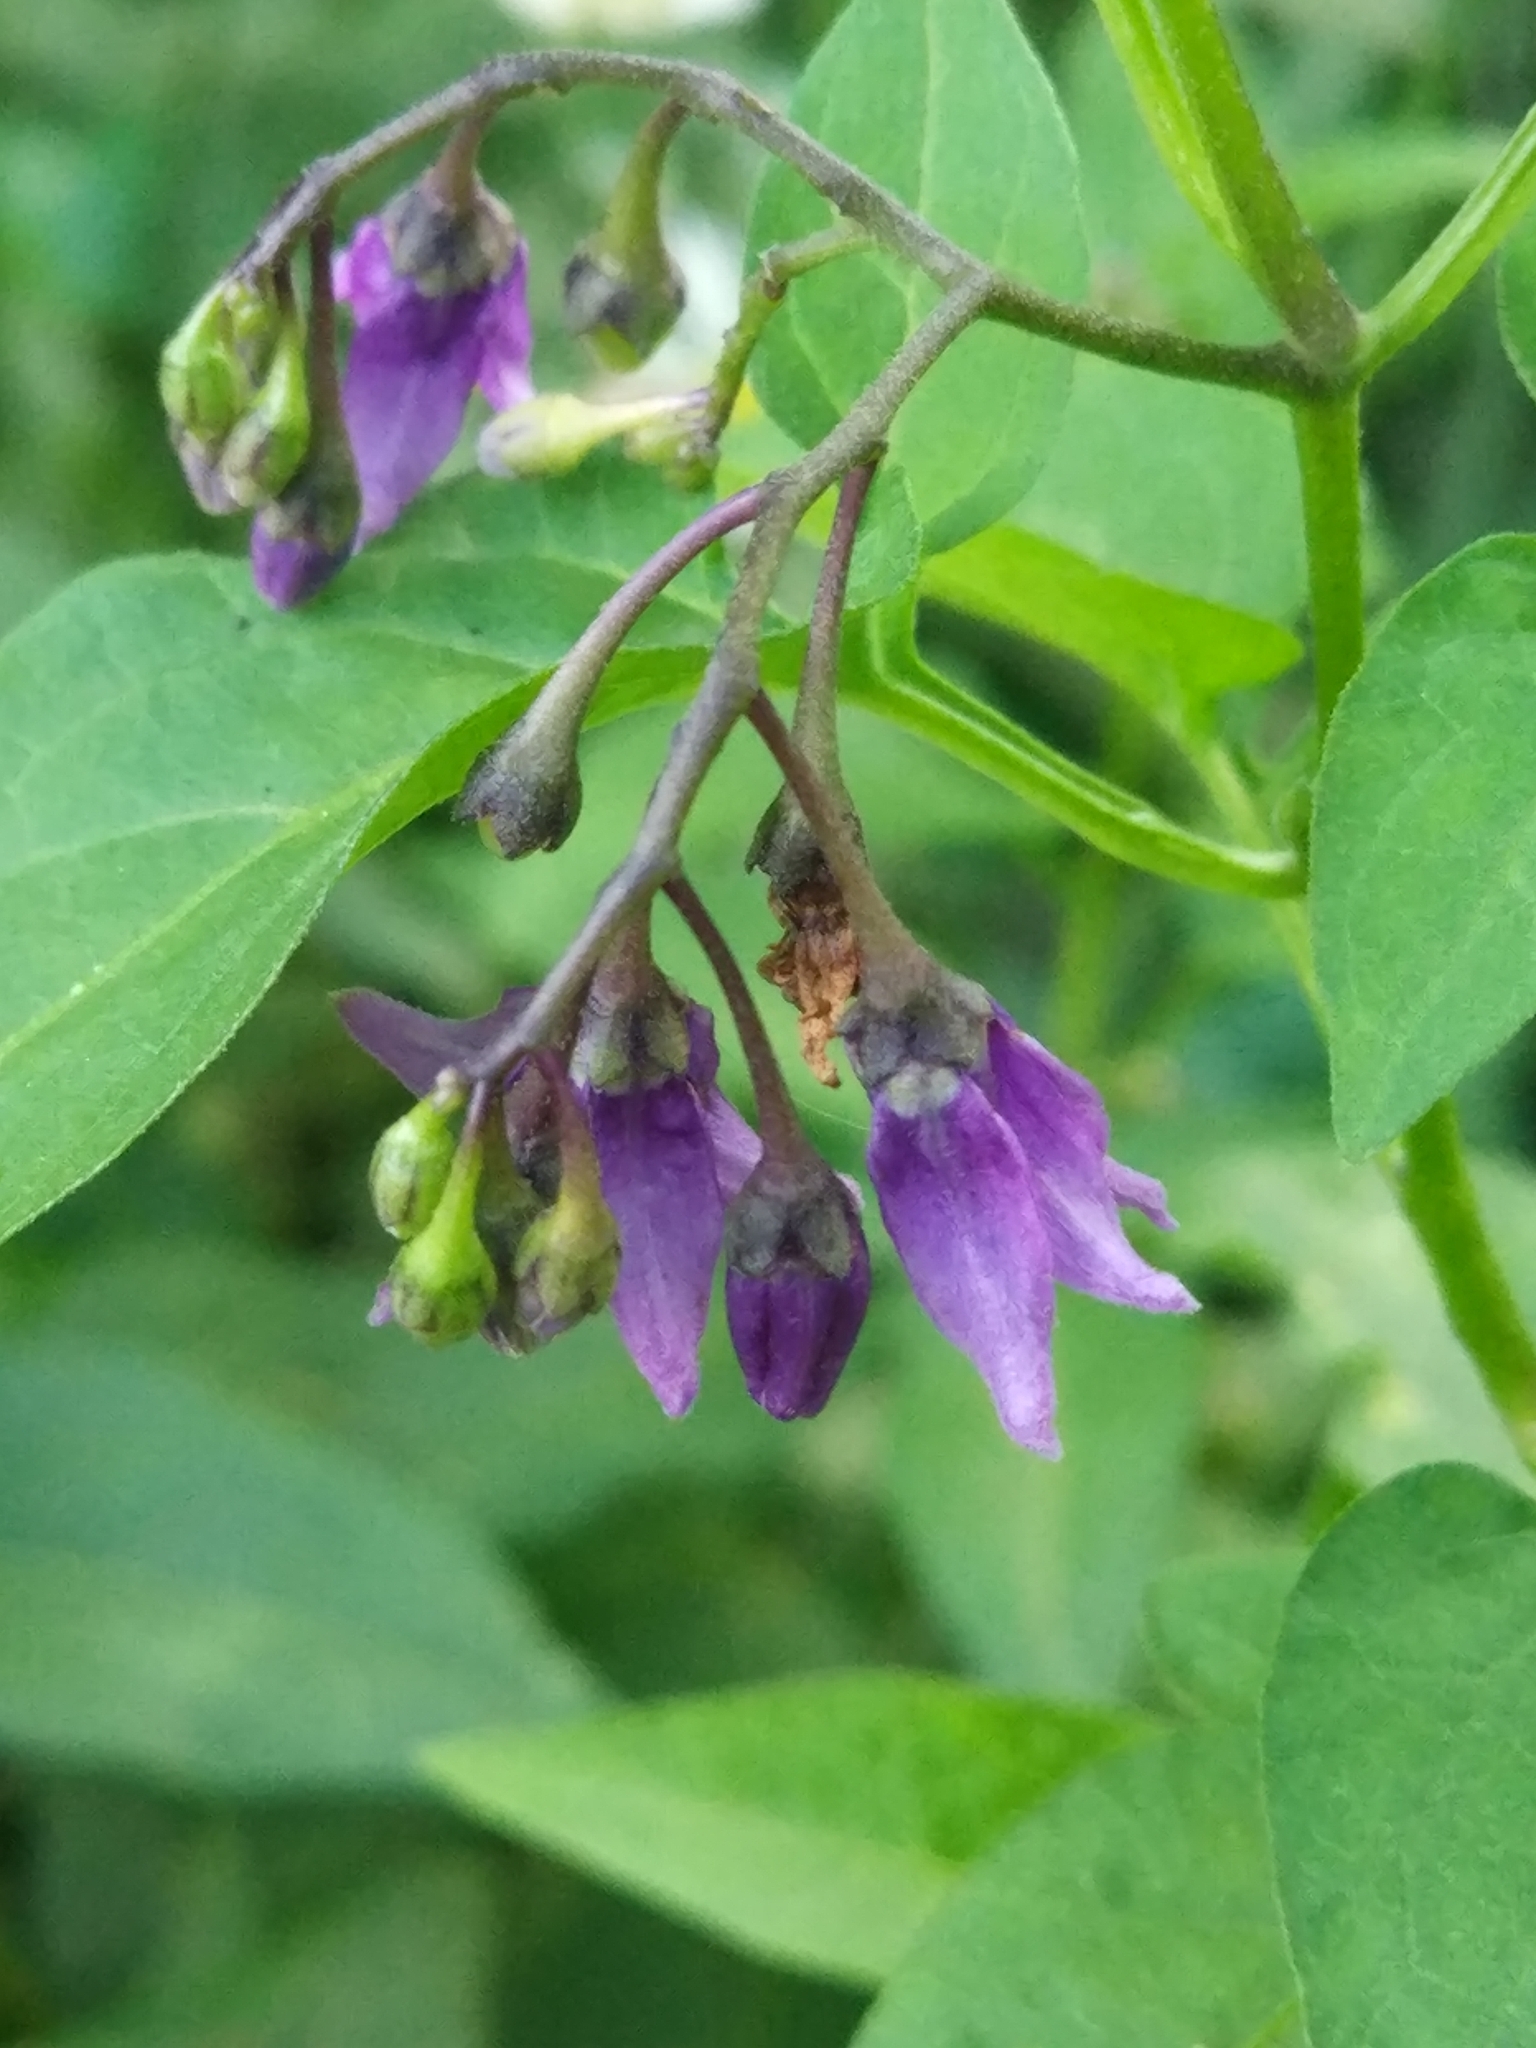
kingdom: Plantae
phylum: Tracheophyta
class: Magnoliopsida
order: Solanales
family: Solanaceae
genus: Solanum
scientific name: Solanum dulcamara
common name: Climbing nightshade
